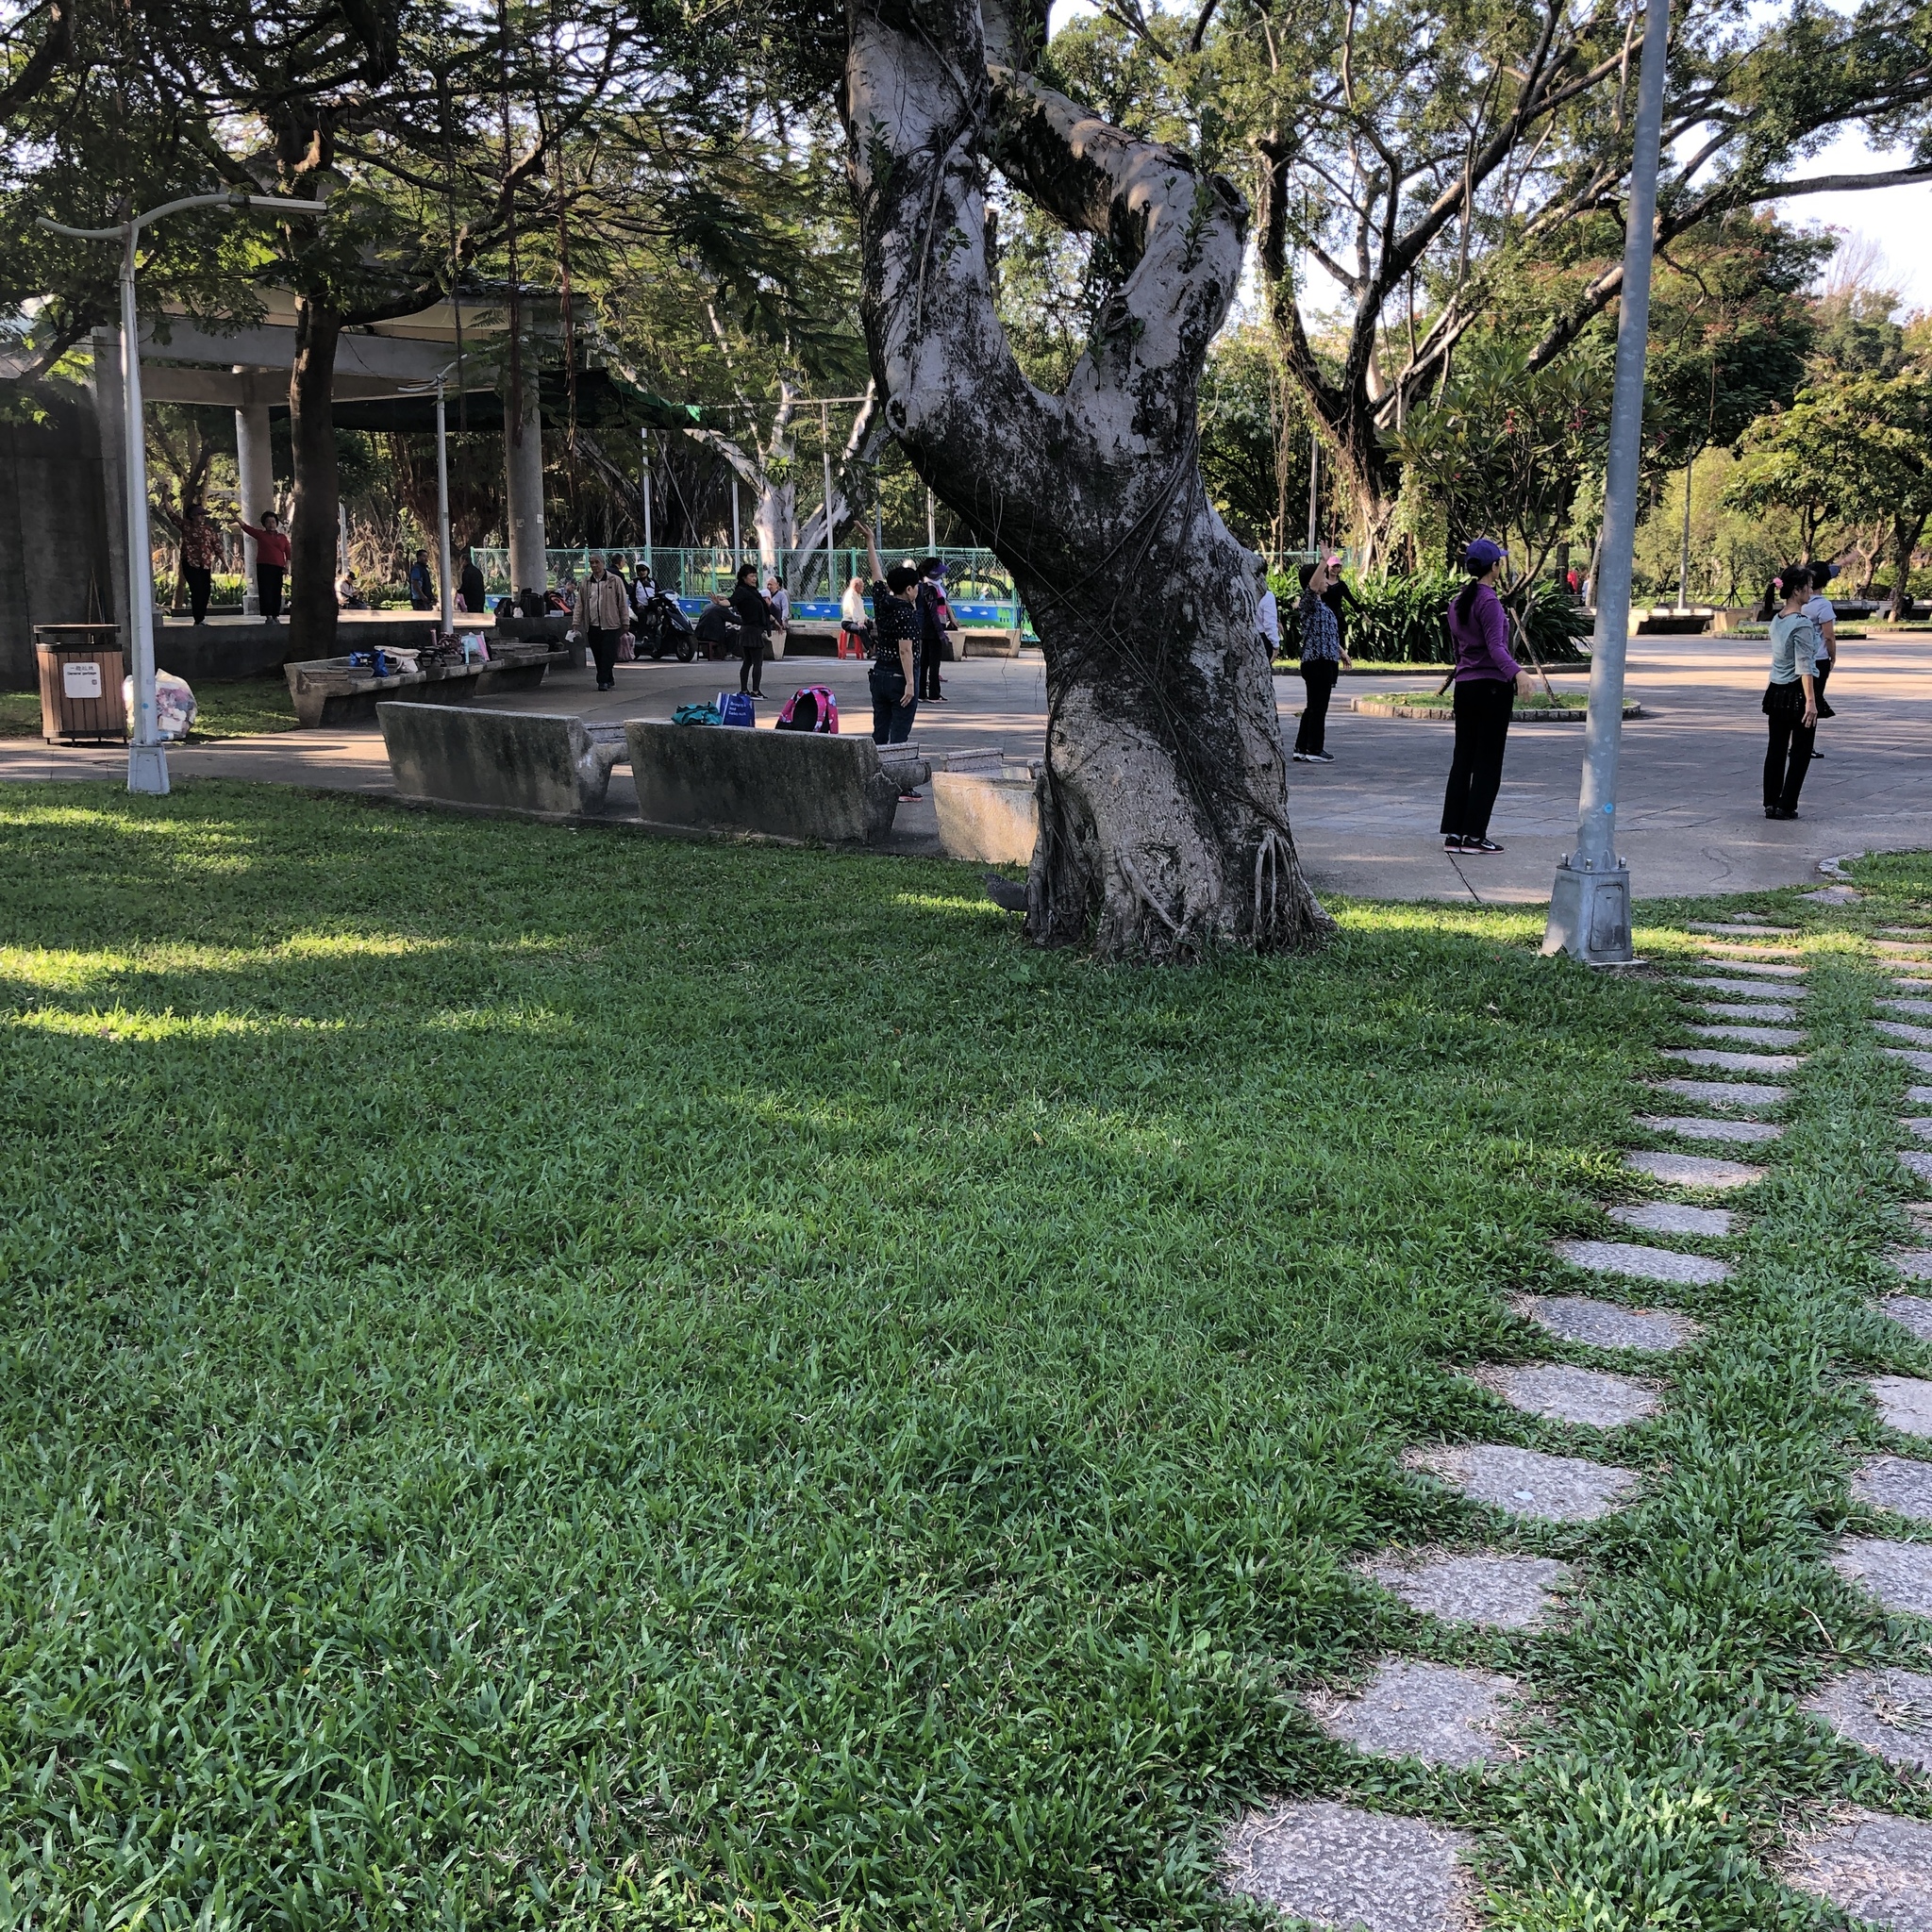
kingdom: Animalia
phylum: Chordata
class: Aves
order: Pelecaniformes
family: Ardeidae
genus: Gorsachius
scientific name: Gorsachius melanolophus
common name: Malayan night heron
